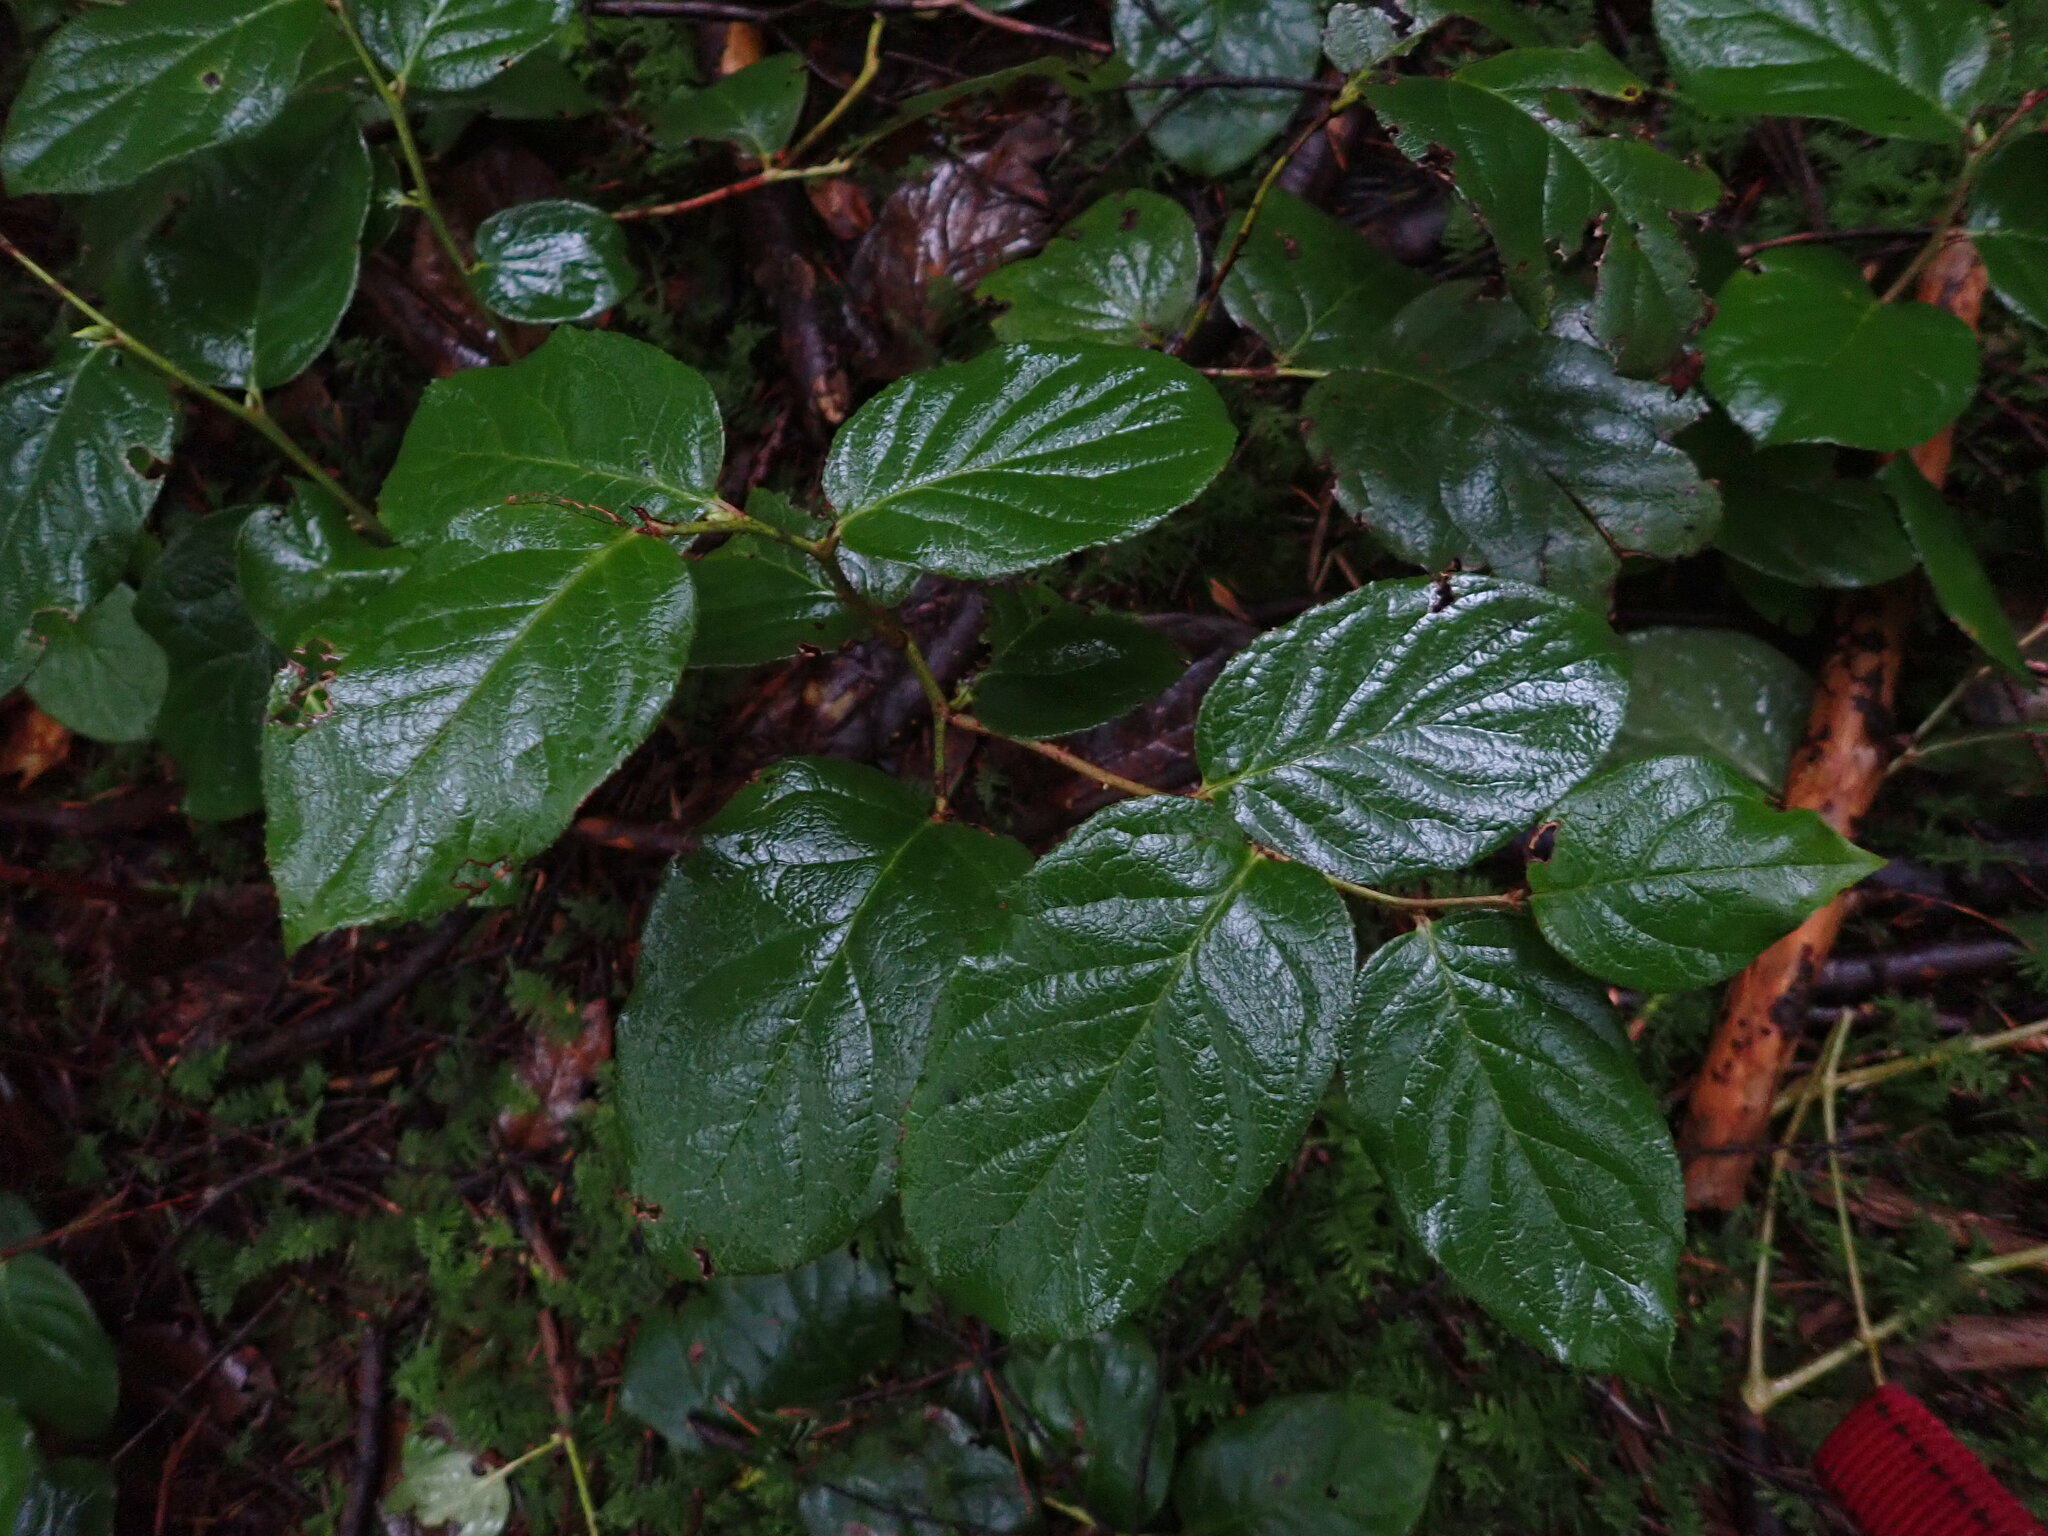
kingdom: Plantae
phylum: Tracheophyta
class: Magnoliopsida
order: Ericales
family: Ericaceae
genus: Gaultheria
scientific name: Gaultheria shallon
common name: Shallon
